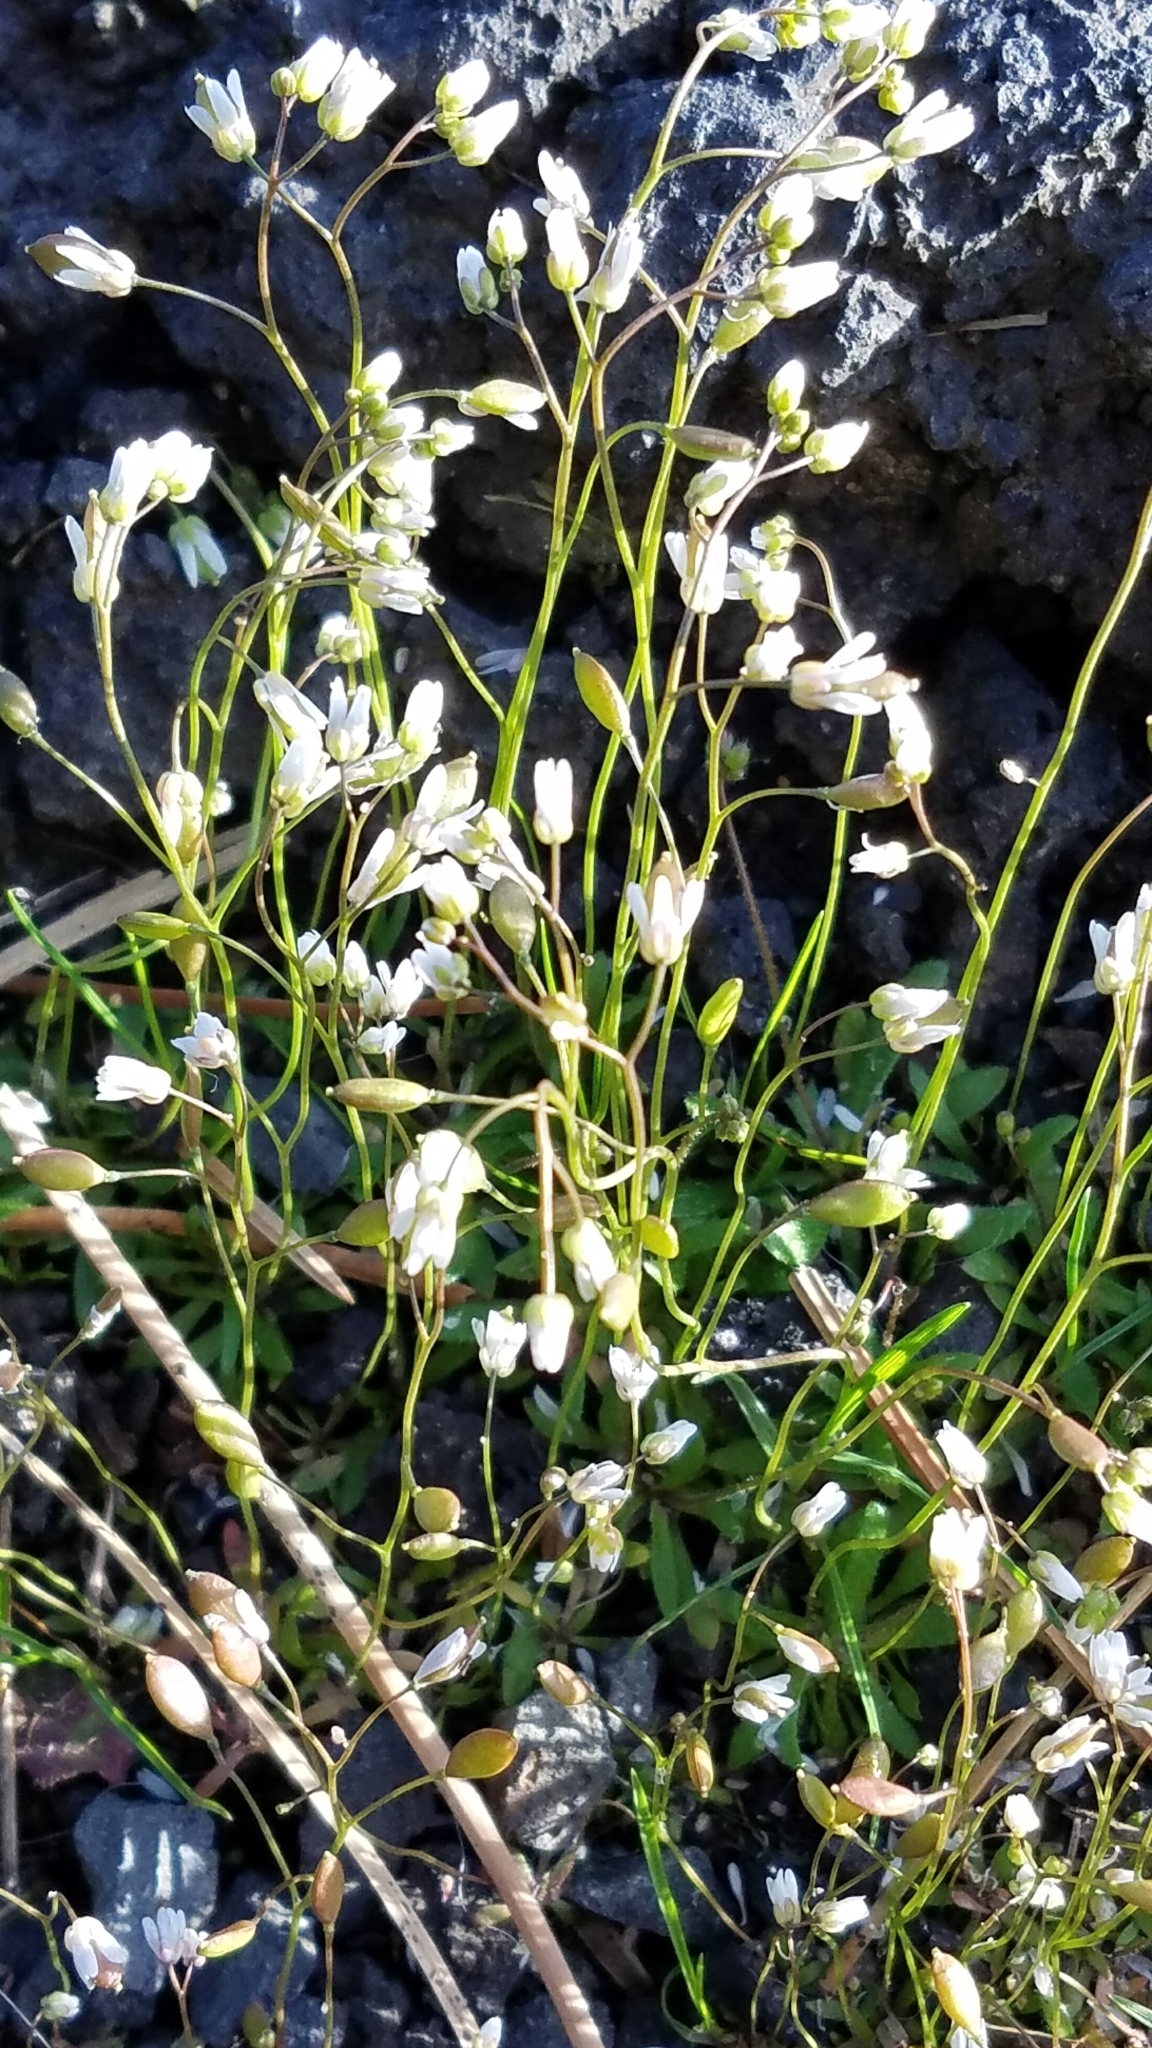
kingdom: Plantae
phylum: Tracheophyta
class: Magnoliopsida
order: Brassicales
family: Brassicaceae
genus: Draba
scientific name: Draba verna
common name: Spring draba
